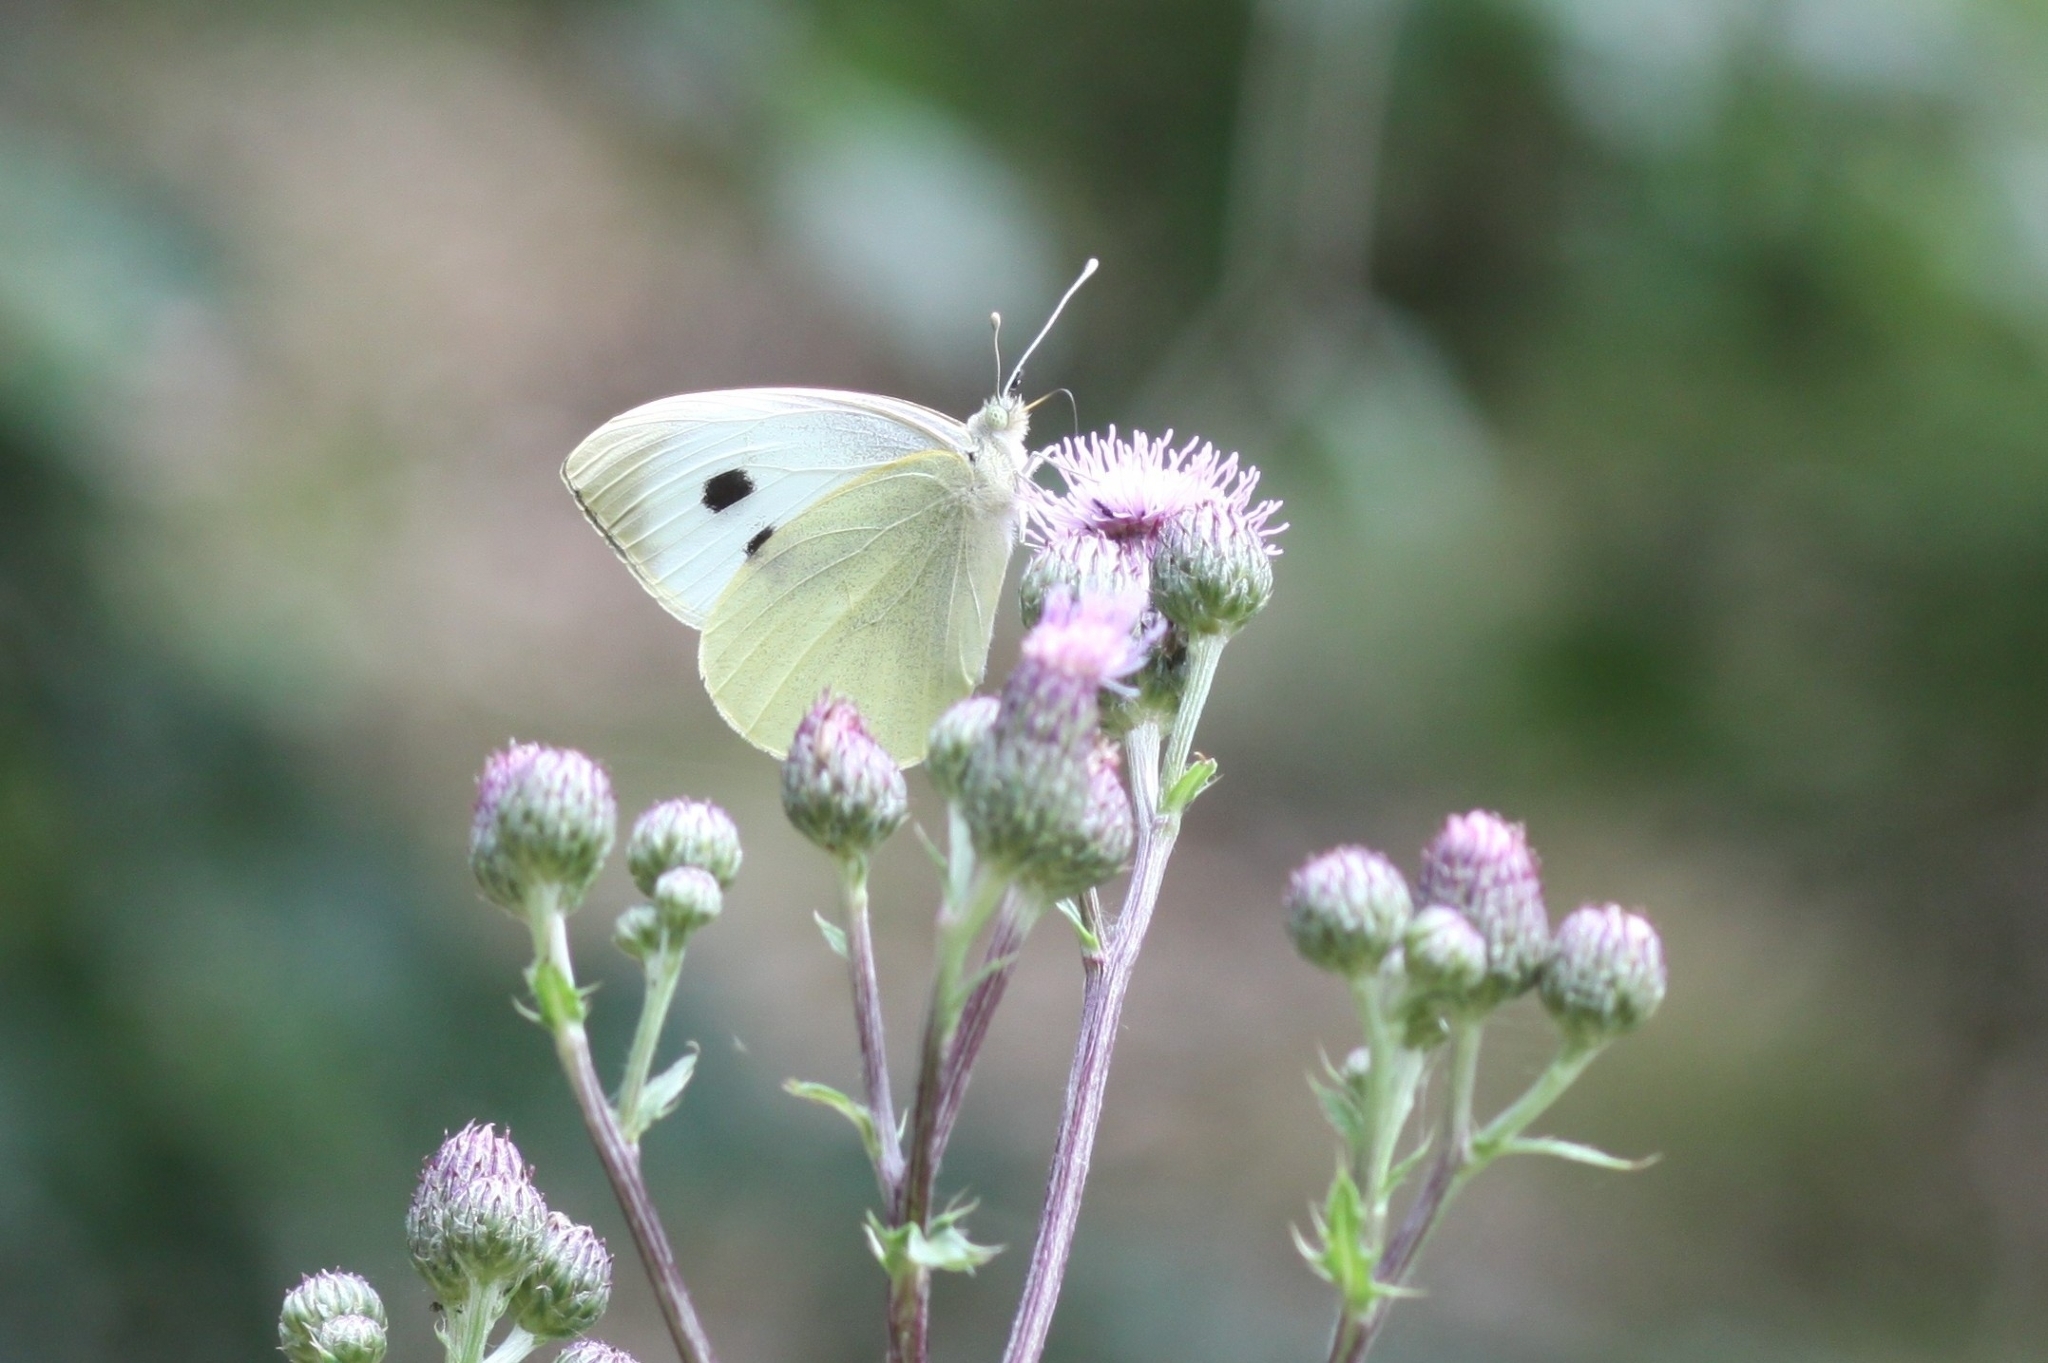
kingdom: Animalia
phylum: Arthropoda
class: Insecta
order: Lepidoptera
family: Pieridae
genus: Pieris
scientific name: Pieris brassicae
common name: Large white
